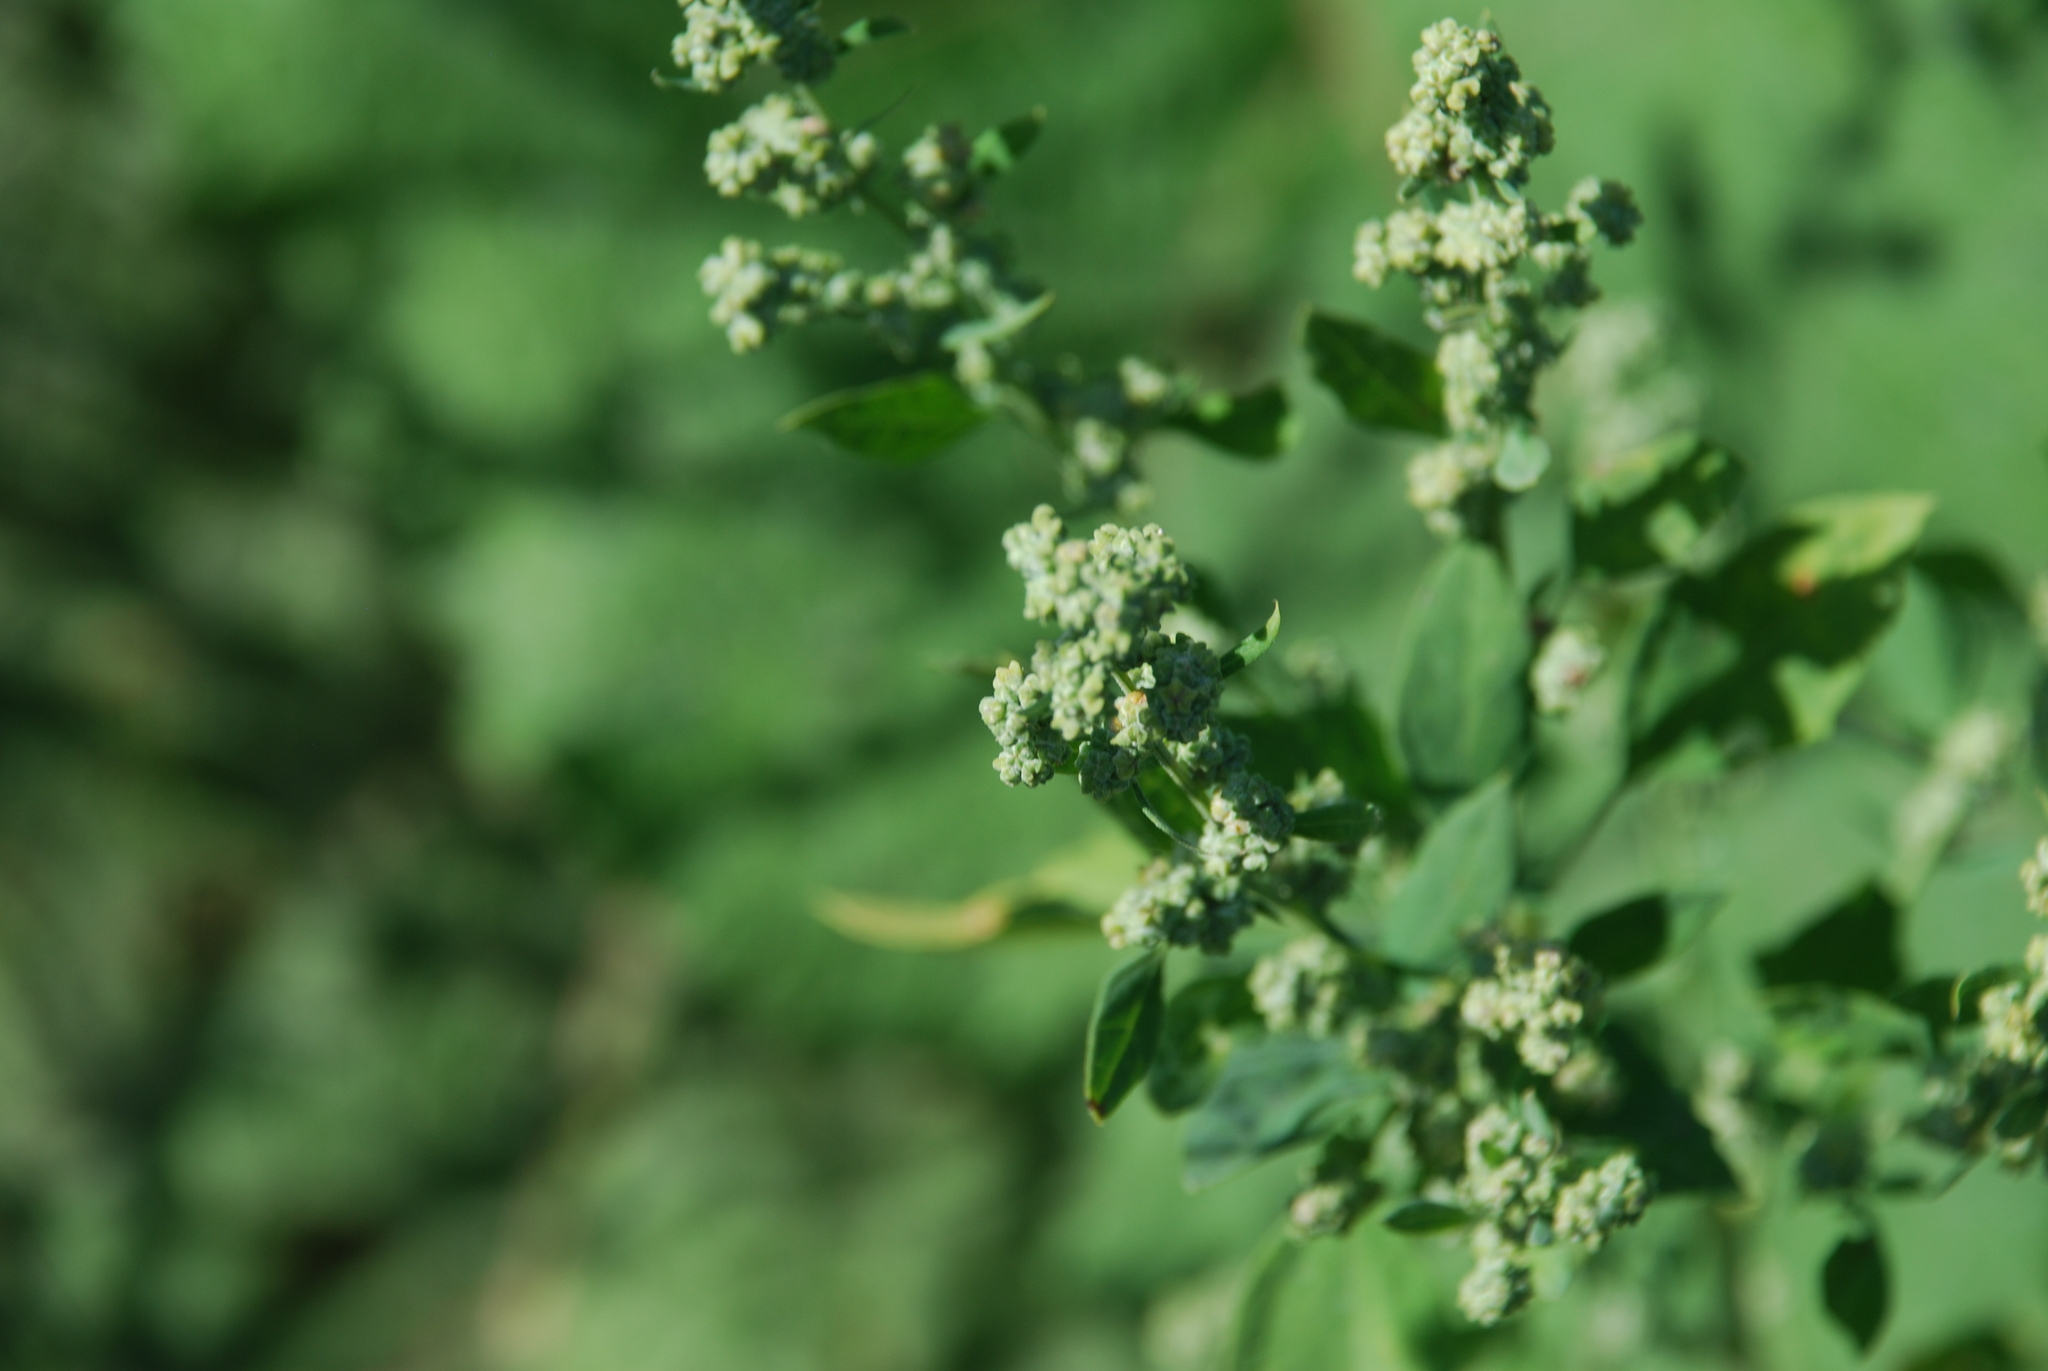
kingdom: Plantae
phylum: Tracheophyta
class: Magnoliopsida
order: Caryophyllales
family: Amaranthaceae
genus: Chenopodium
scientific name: Chenopodium album
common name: Fat-hen
